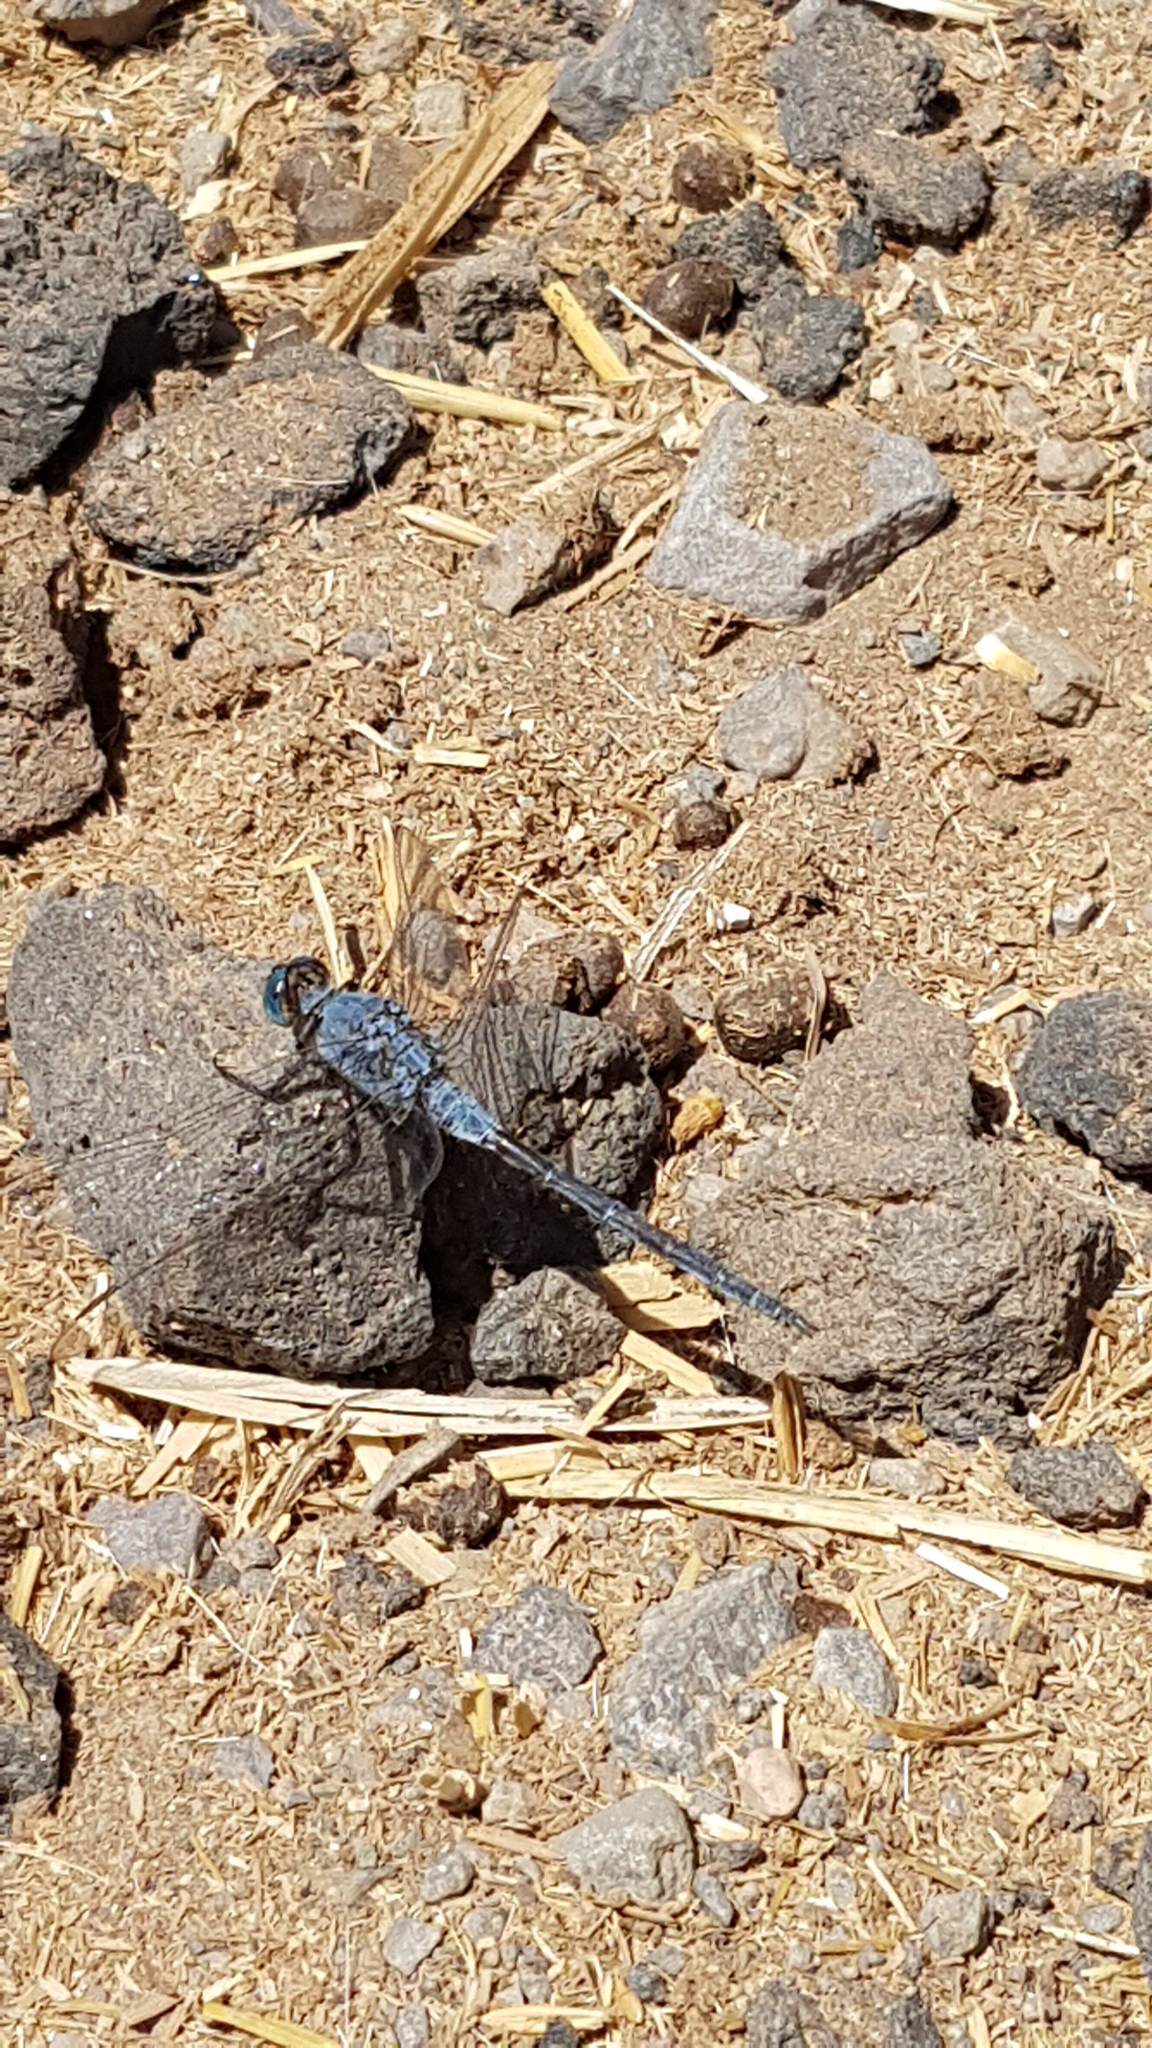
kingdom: Animalia
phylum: Arthropoda
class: Insecta
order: Odonata
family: Libellulidae
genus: Orthetrum
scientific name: Orthetrum trinacria
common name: Long skimmer
